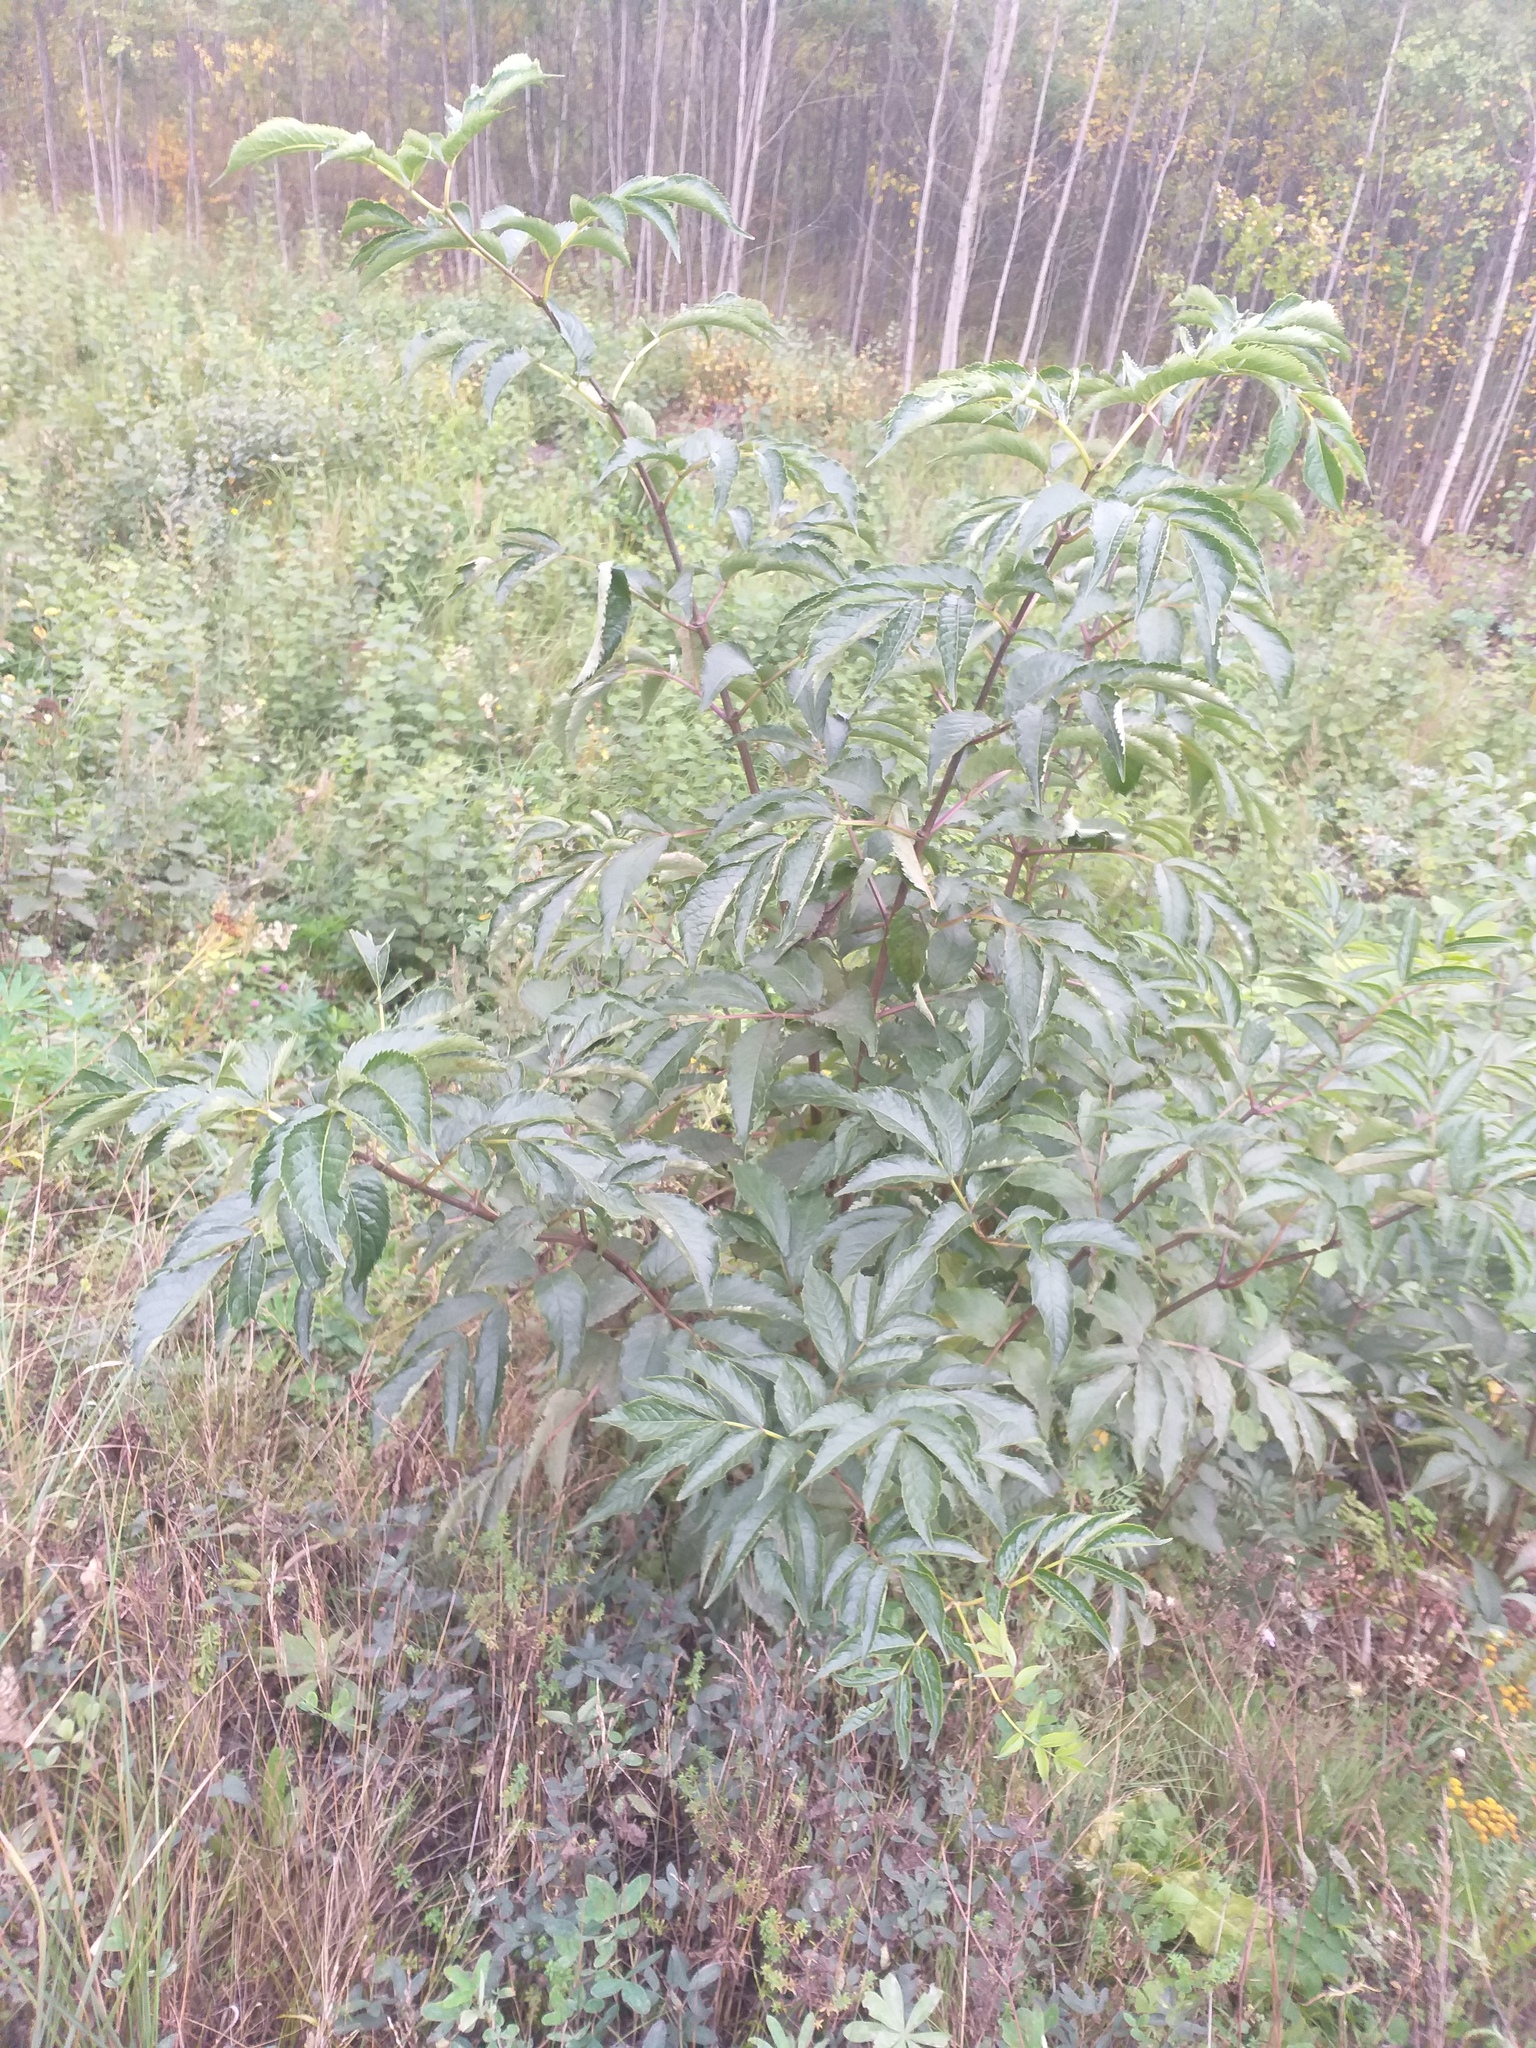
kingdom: Plantae
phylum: Tracheophyta
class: Magnoliopsida
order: Dipsacales
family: Viburnaceae
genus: Sambucus
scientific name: Sambucus racemosa
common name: Red-berried elder
